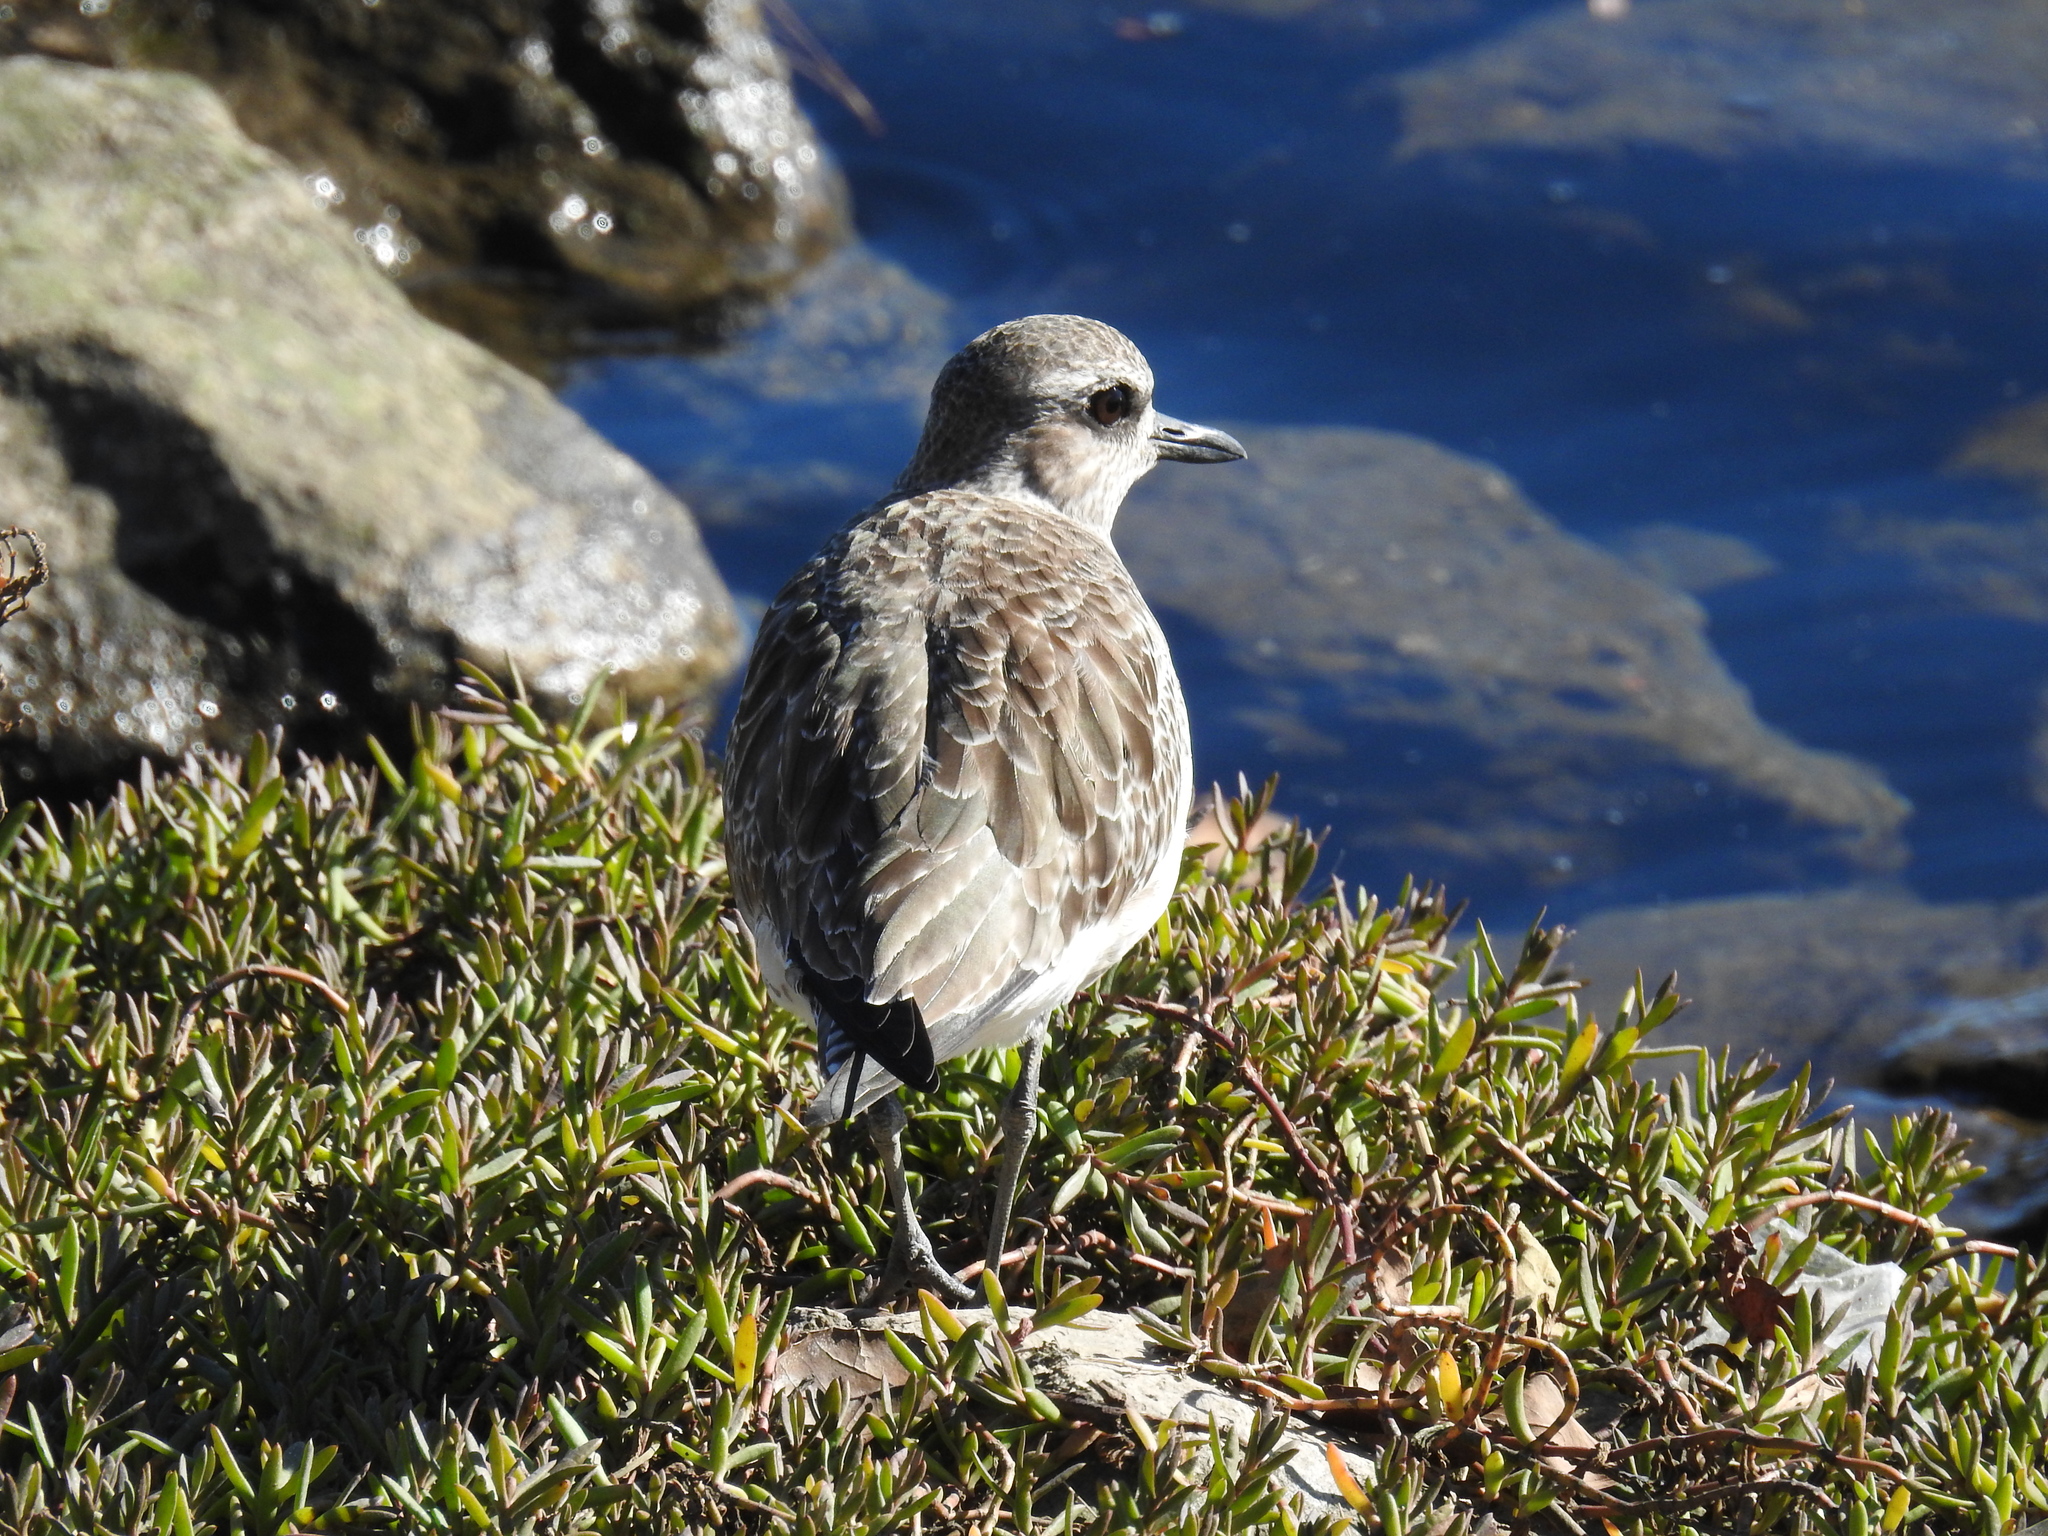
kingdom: Animalia
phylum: Chordata
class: Aves
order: Charadriiformes
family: Charadriidae
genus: Pluvialis
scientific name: Pluvialis squatarola
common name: Grey plover
